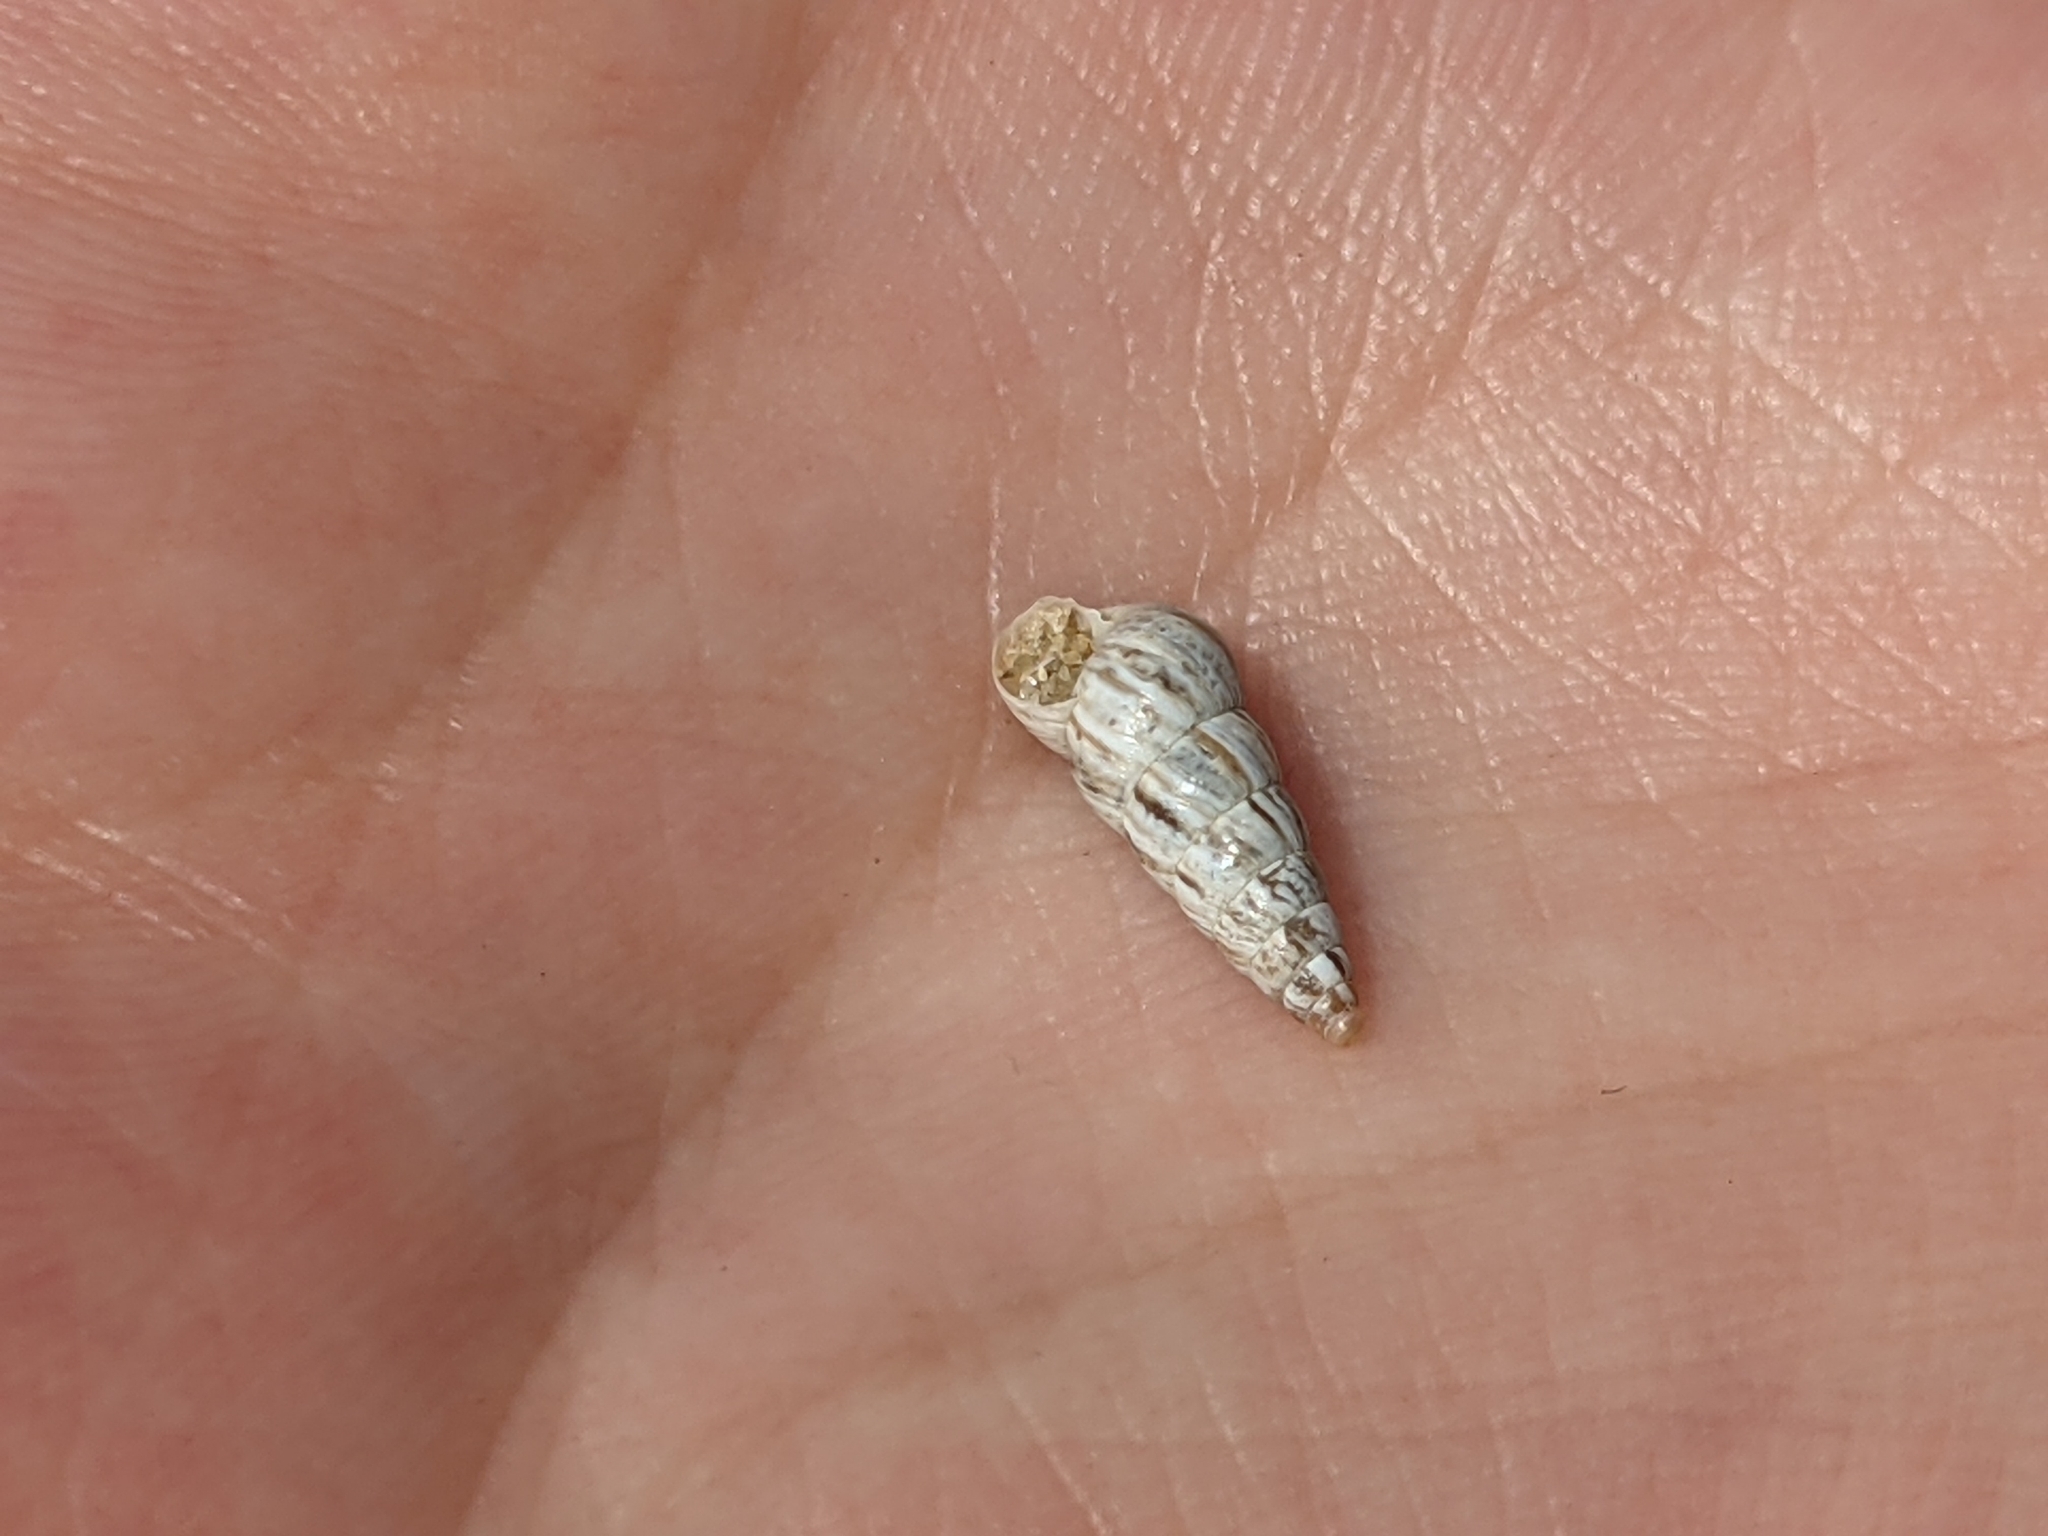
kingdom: Animalia
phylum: Mollusca
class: Gastropoda
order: Stylommatophora
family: Geomitridae
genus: Cochlicella
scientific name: Cochlicella acuta
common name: Pointed snail
